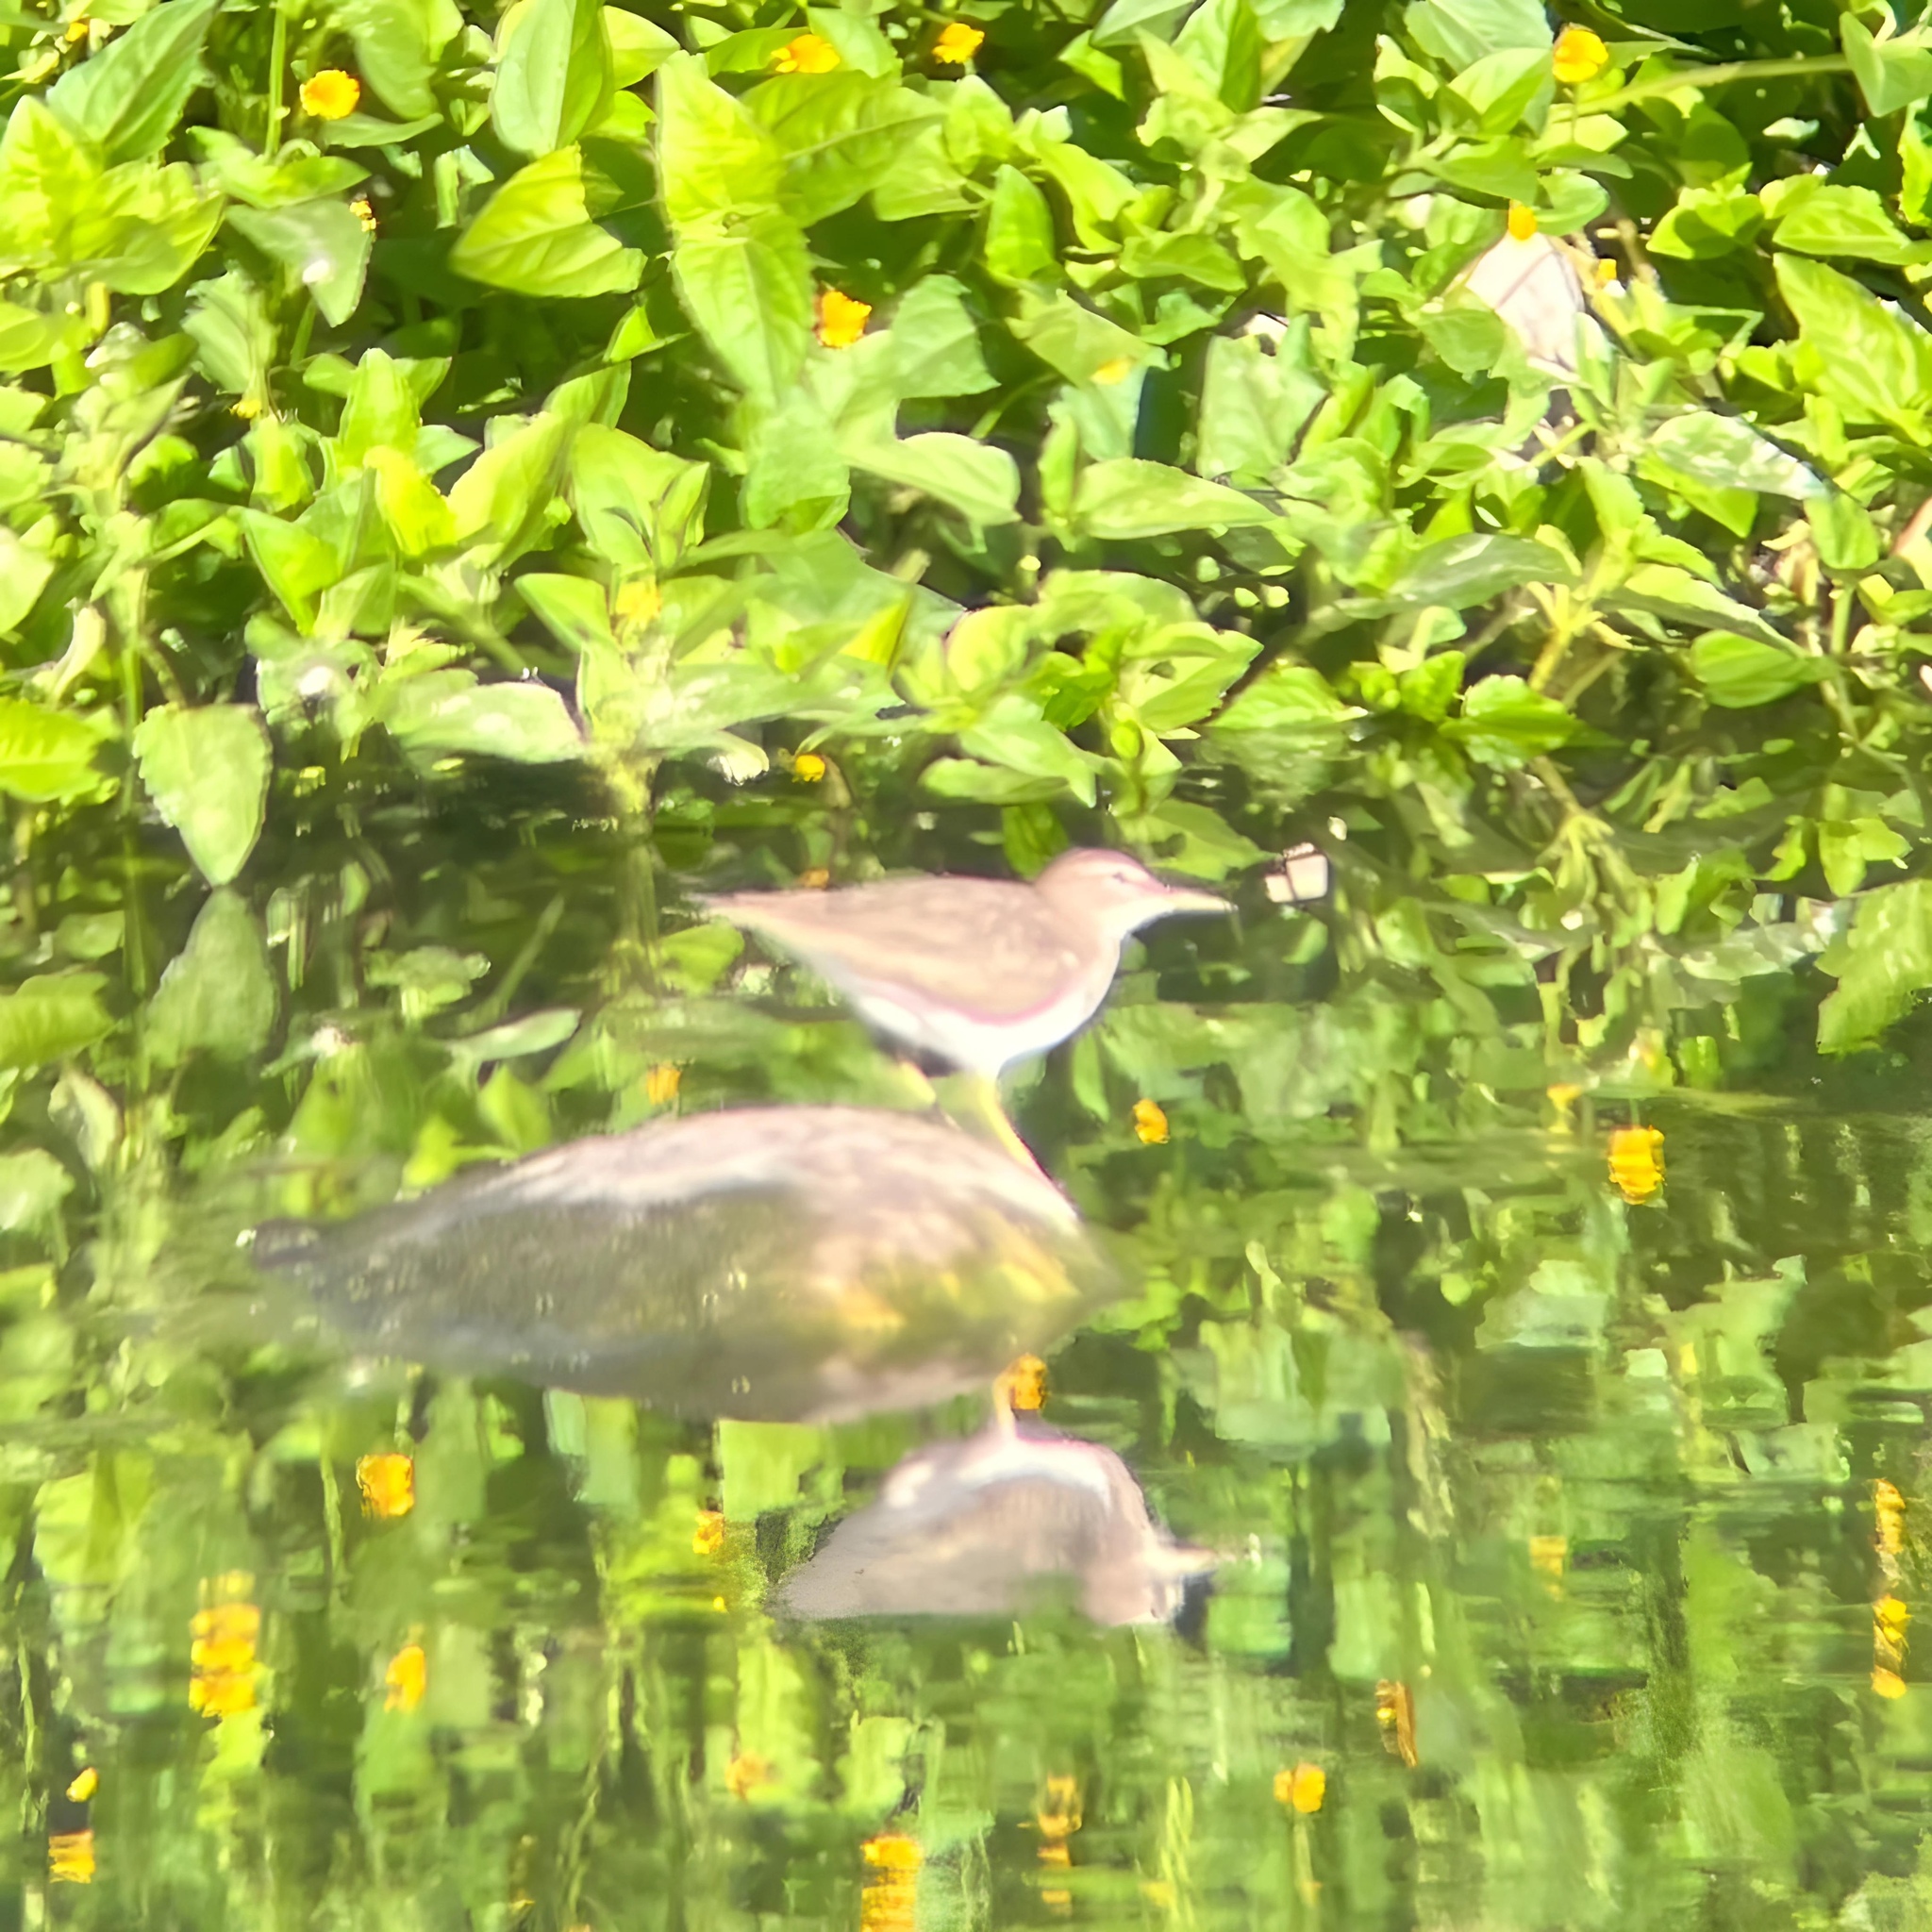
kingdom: Animalia
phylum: Chordata
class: Aves
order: Charadriiformes
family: Scolopacidae
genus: Actitis
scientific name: Actitis macularius
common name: Spotted sandpiper
